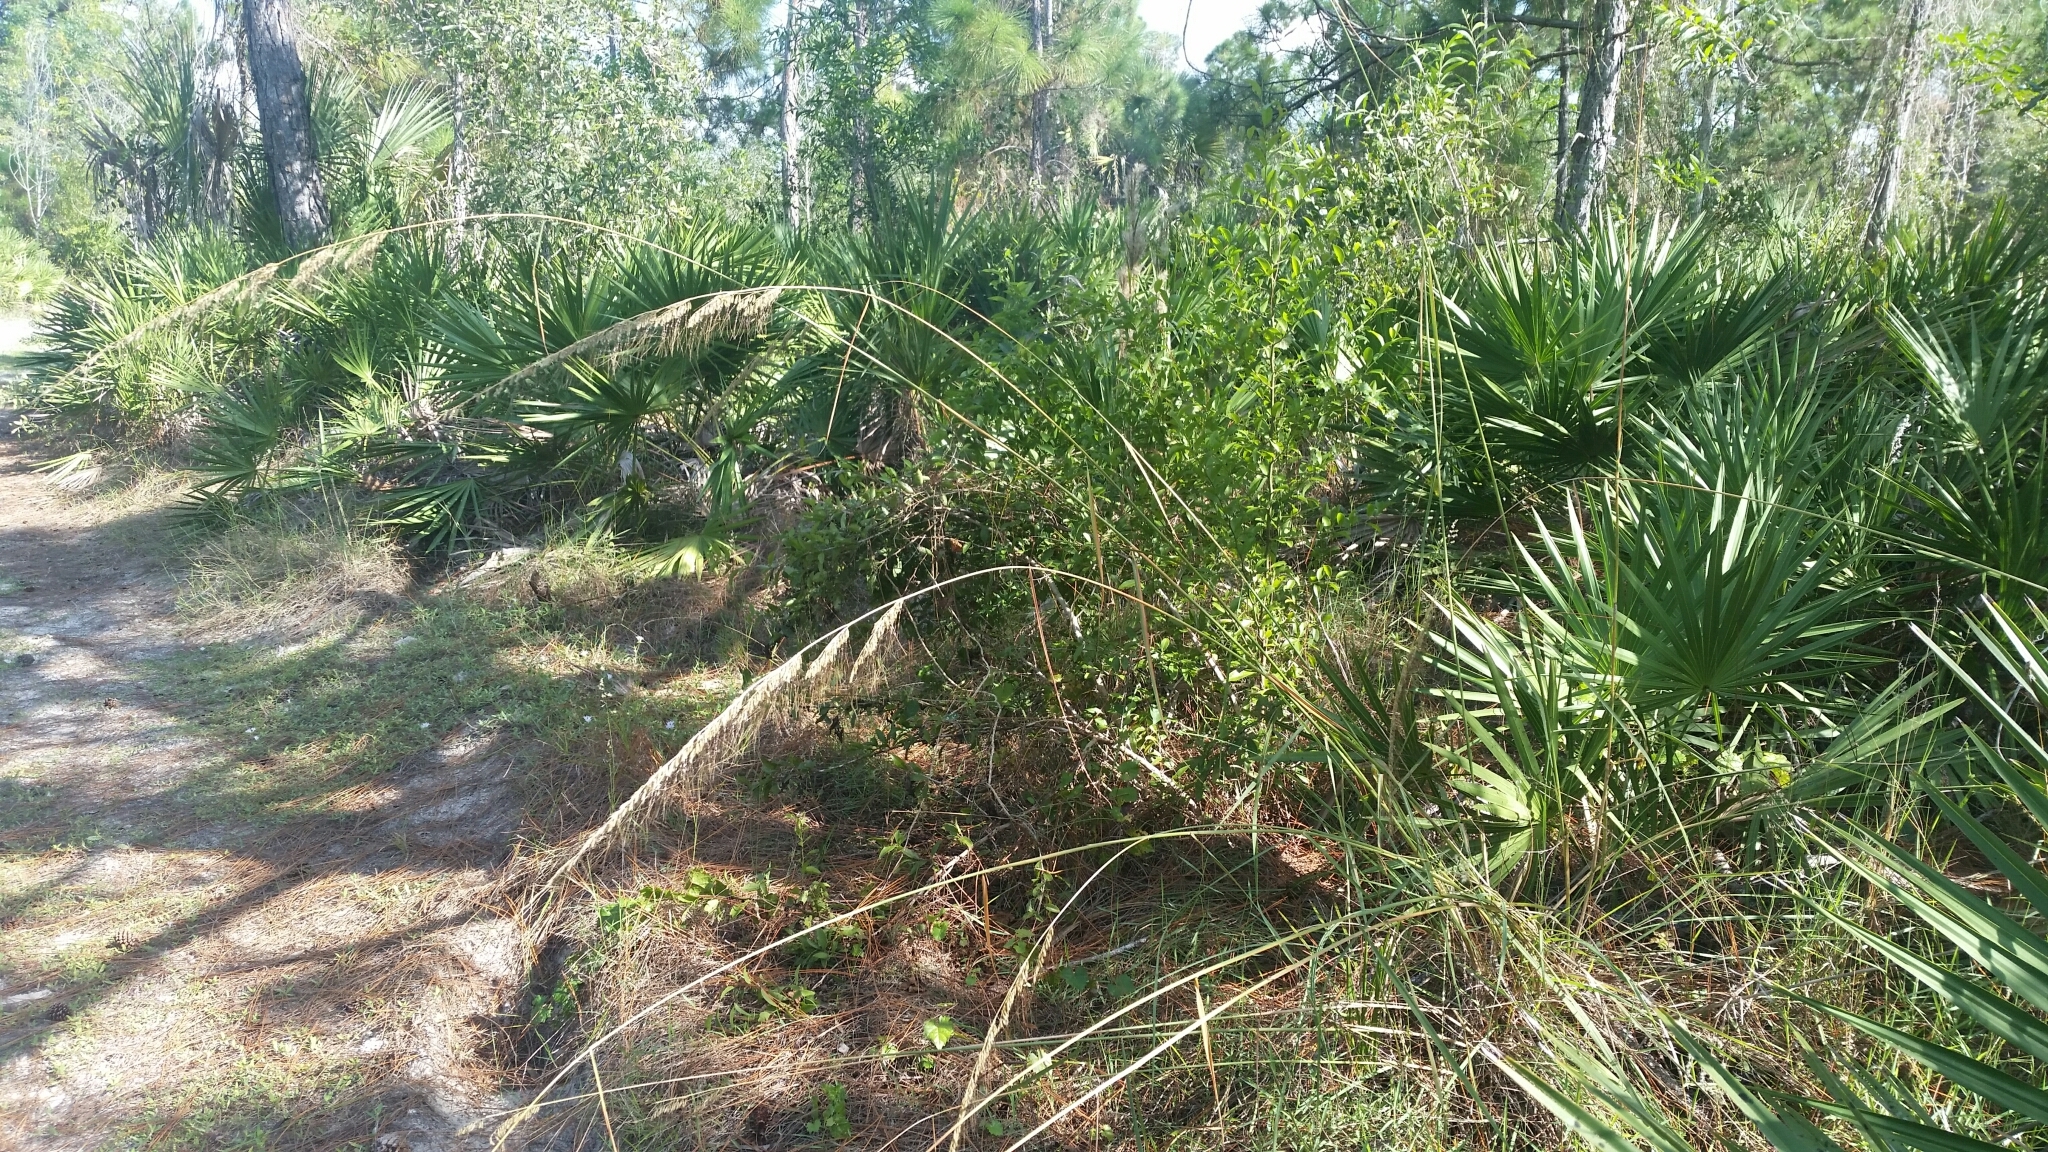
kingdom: Plantae
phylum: Tracheophyta
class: Liliopsida
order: Poales
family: Poaceae
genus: Sorghastrum
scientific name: Sorghastrum secundum
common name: Lopsided indian grass
